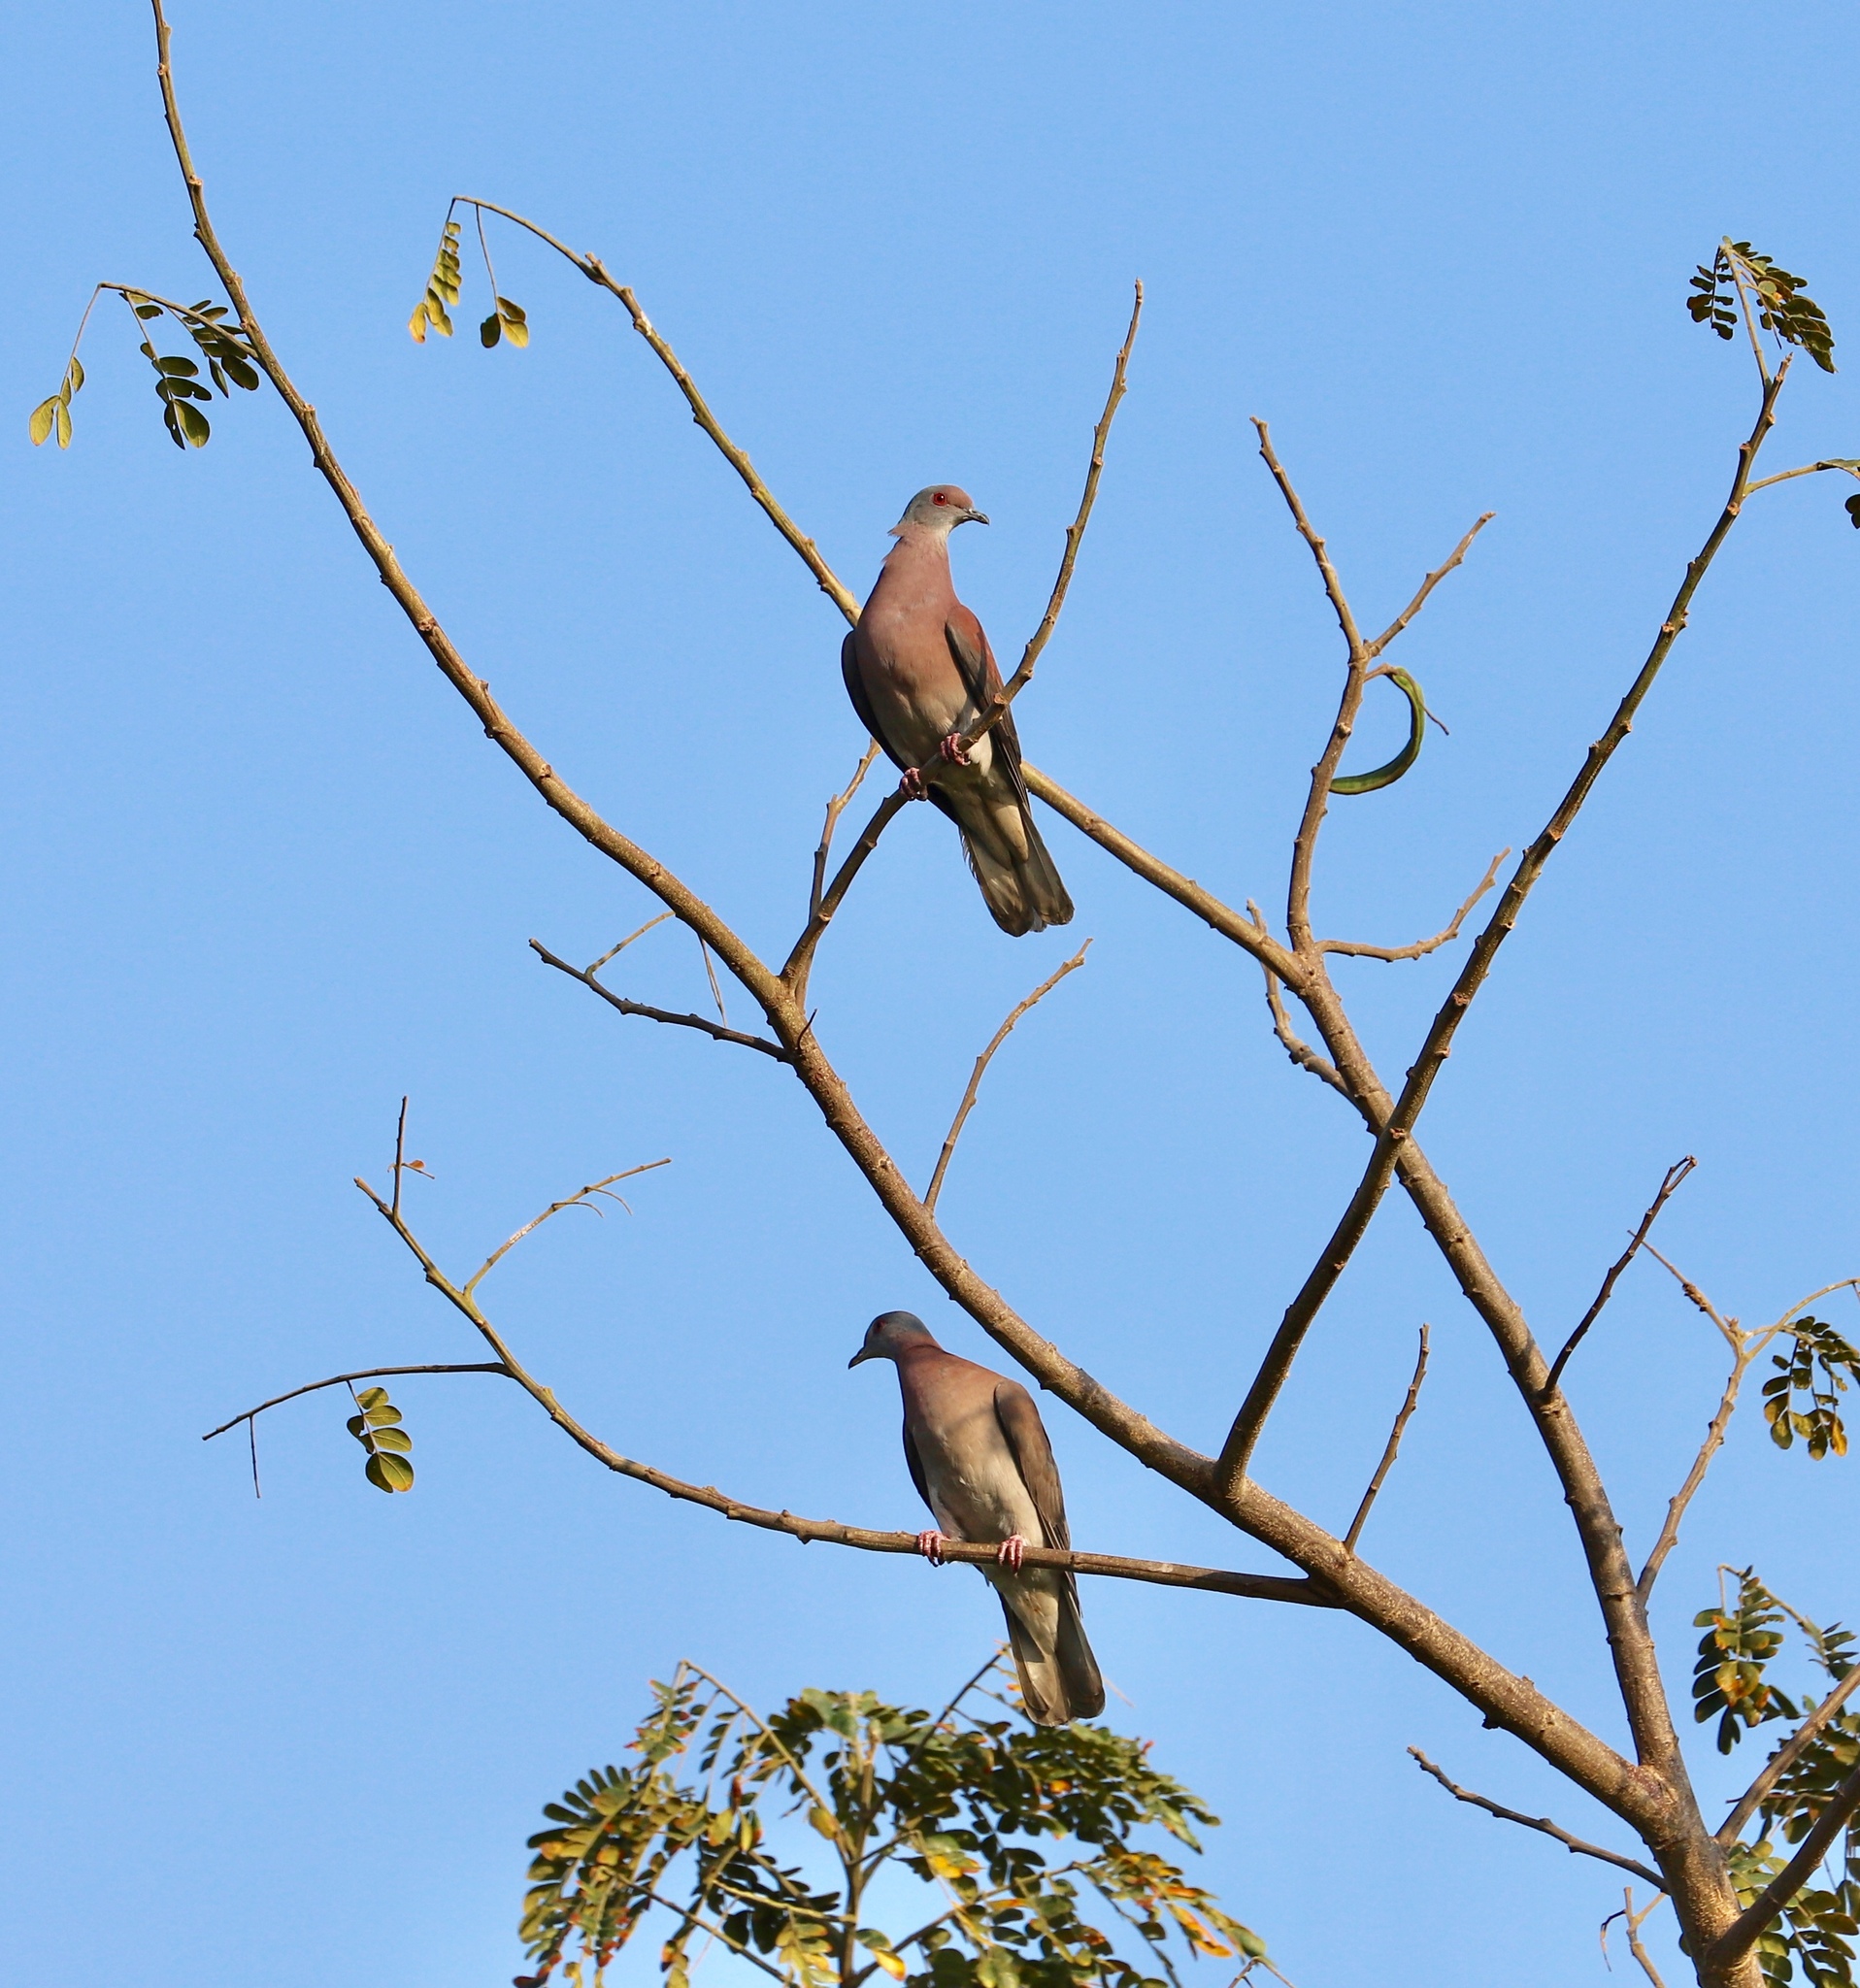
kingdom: Animalia
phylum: Chordata
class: Aves
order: Columbiformes
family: Columbidae
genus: Patagioenas
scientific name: Patagioenas cayennensis
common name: Pale-vented pigeon
